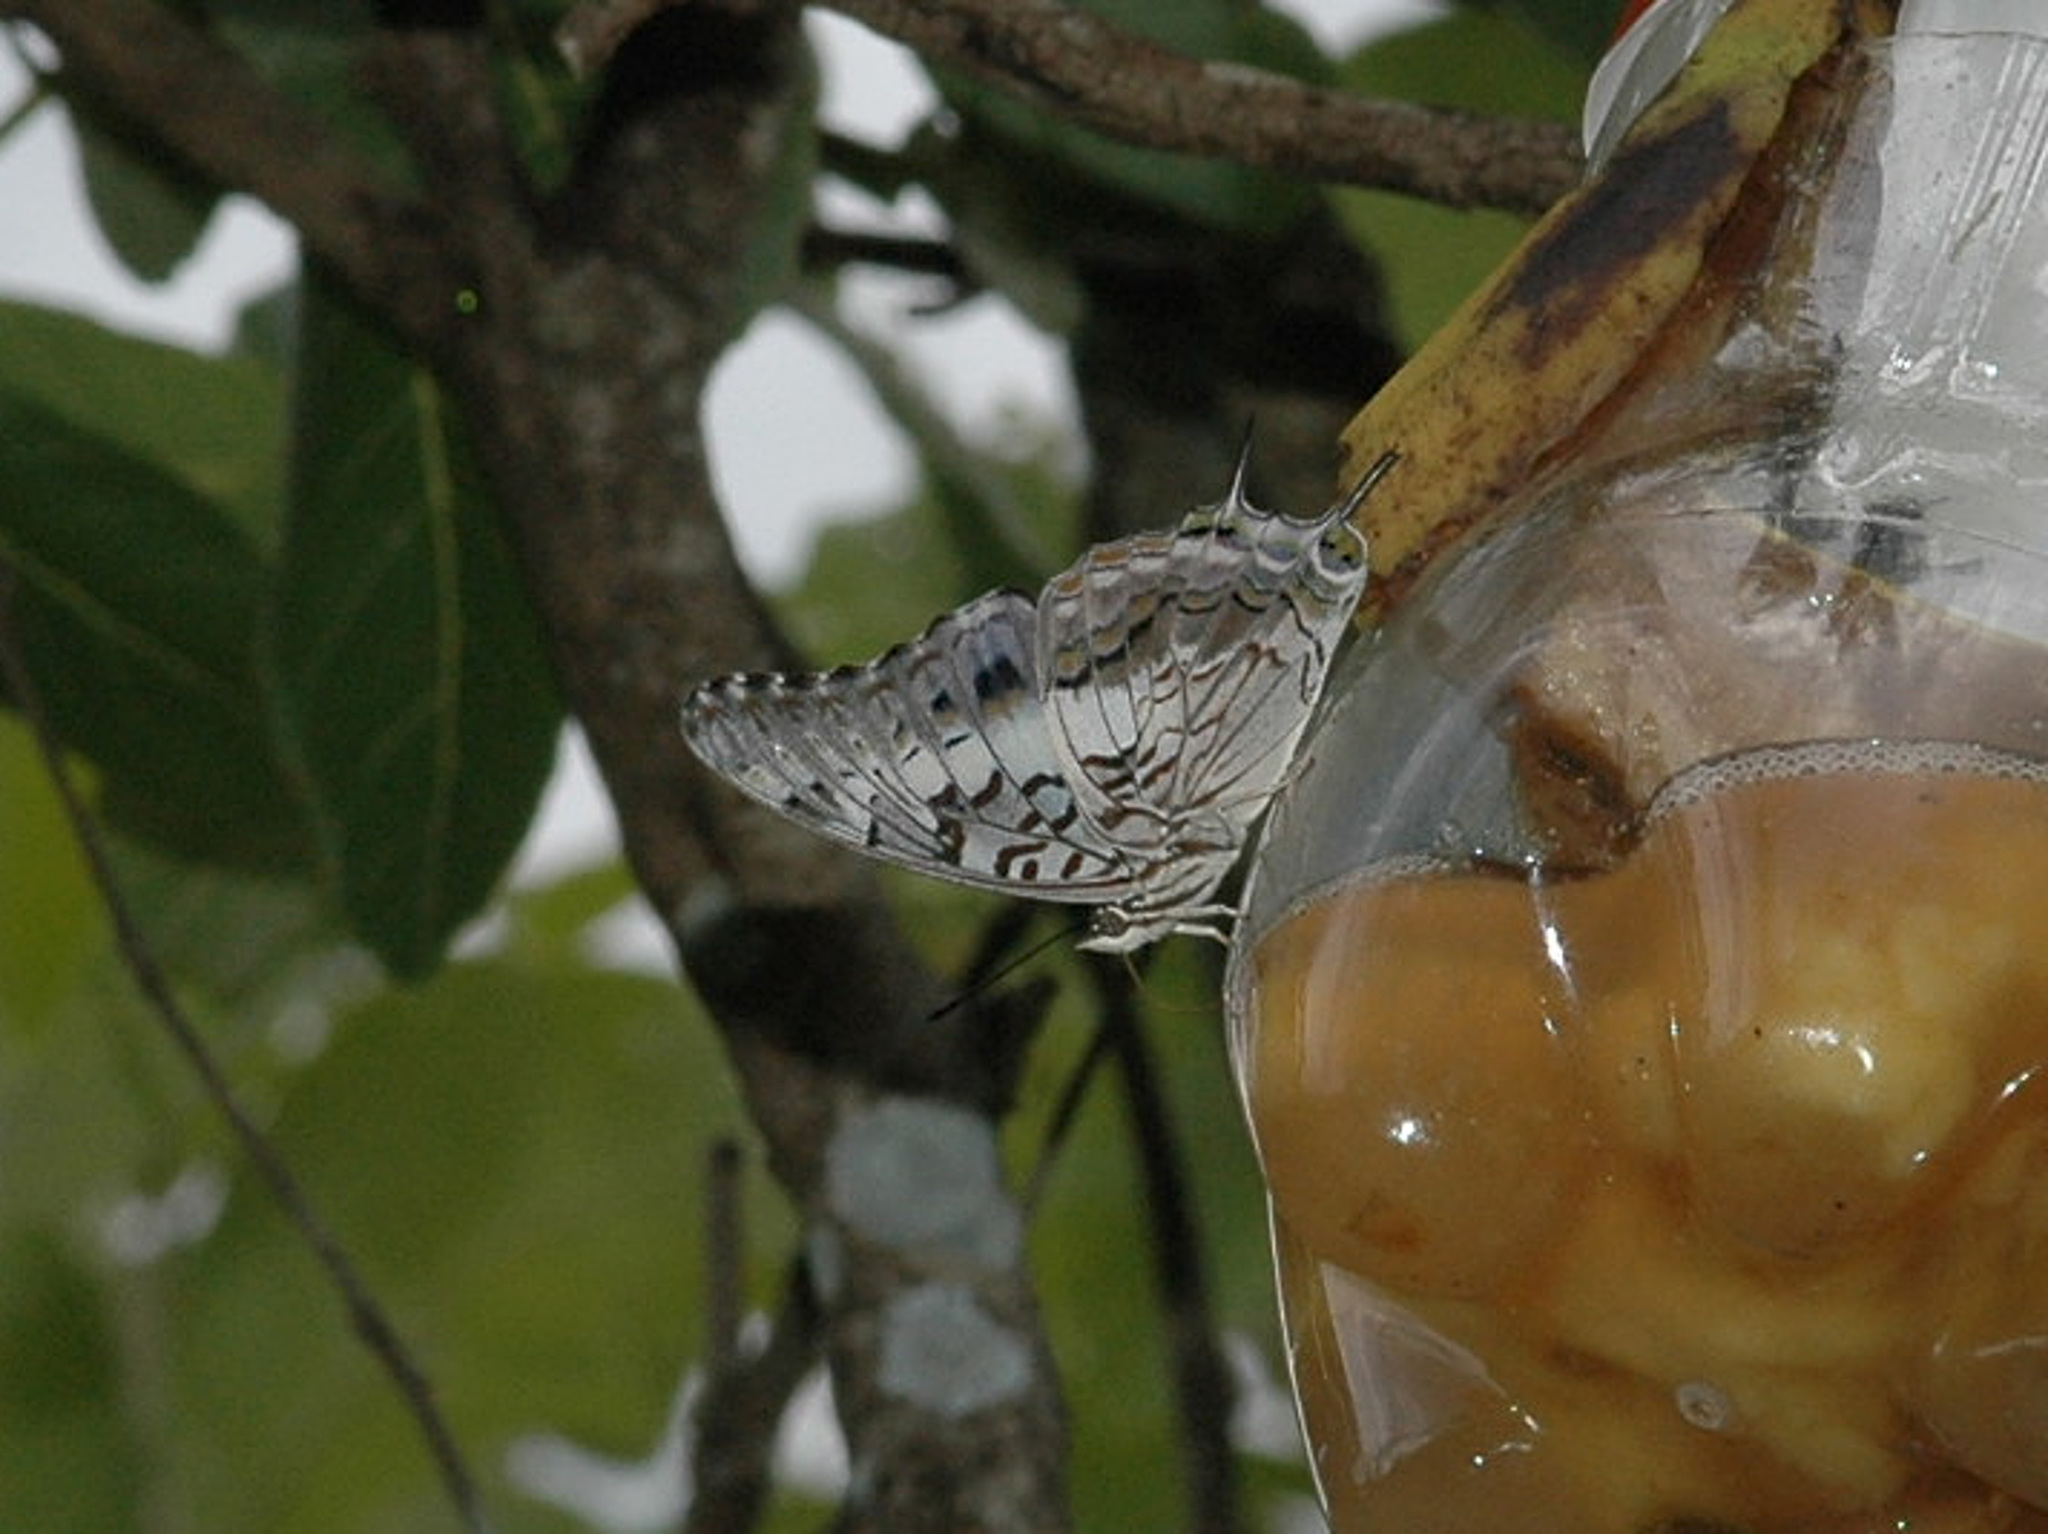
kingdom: Animalia
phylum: Arthropoda
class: Insecta
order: Lepidoptera
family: Nymphalidae
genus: Charaxes
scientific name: Charaxes achaemenes
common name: Bushveld charaxes
